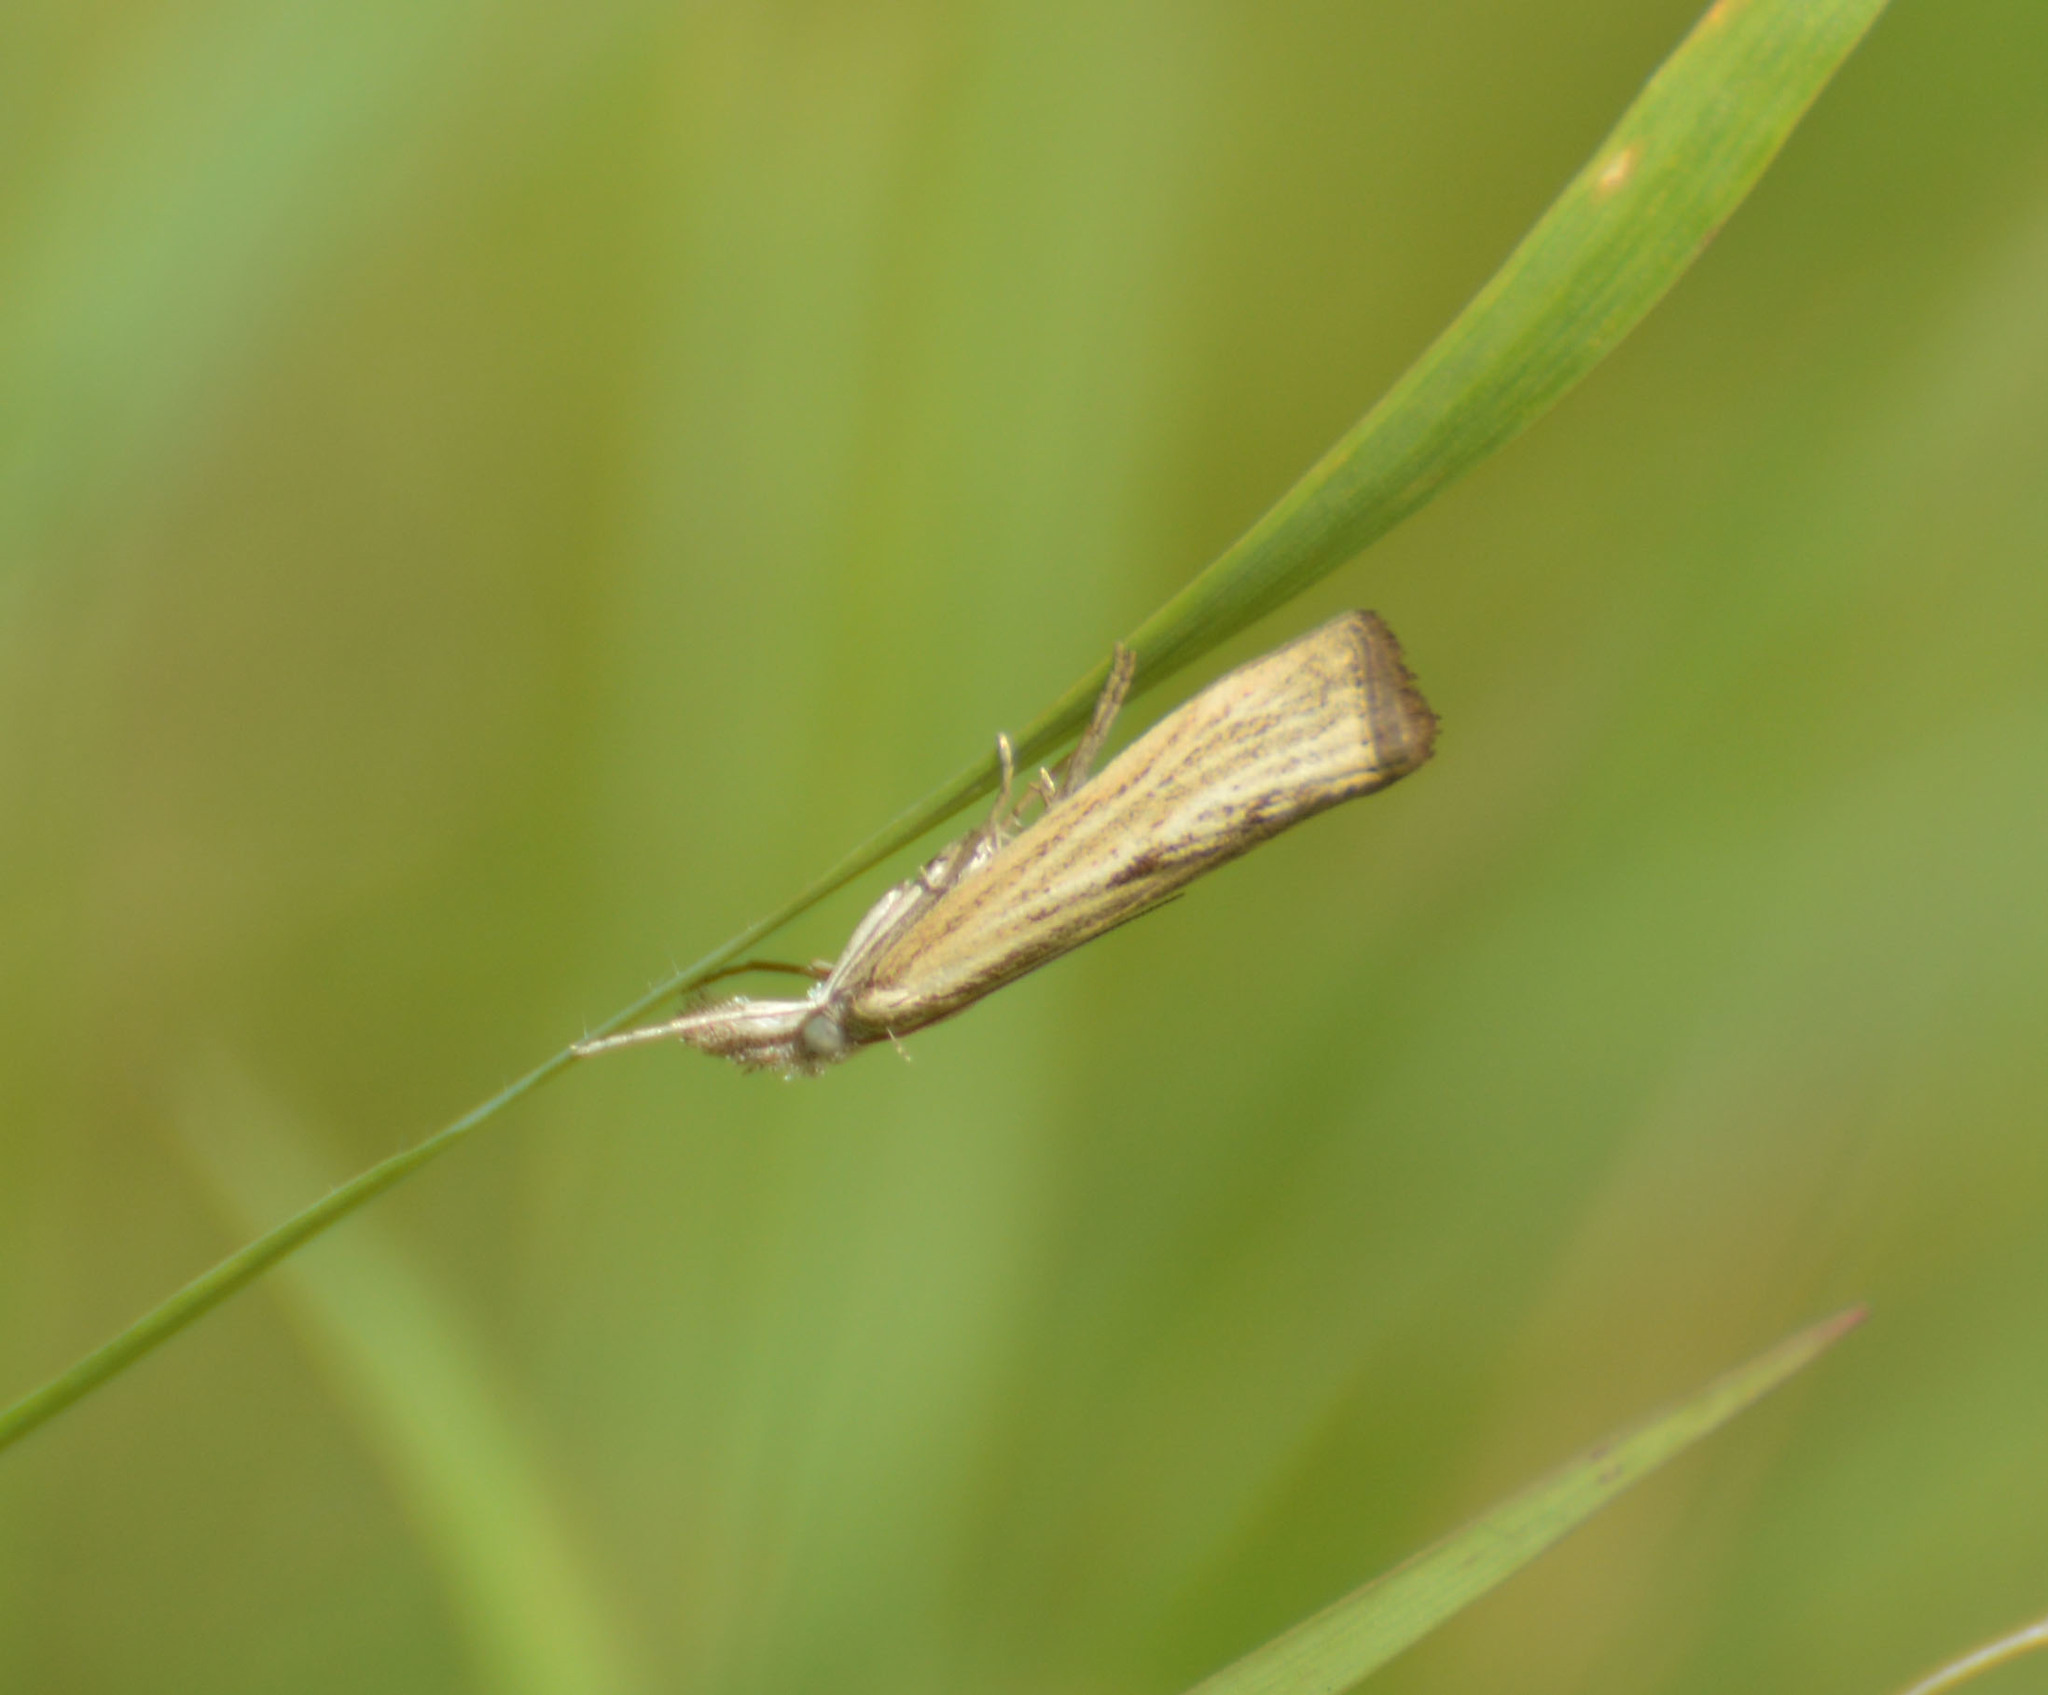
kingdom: Animalia
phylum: Arthropoda
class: Insecta
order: Lepidoptera
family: Crambidae
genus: Agriphila
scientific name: Agriphila inquinatella
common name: Barred grass-veneer
